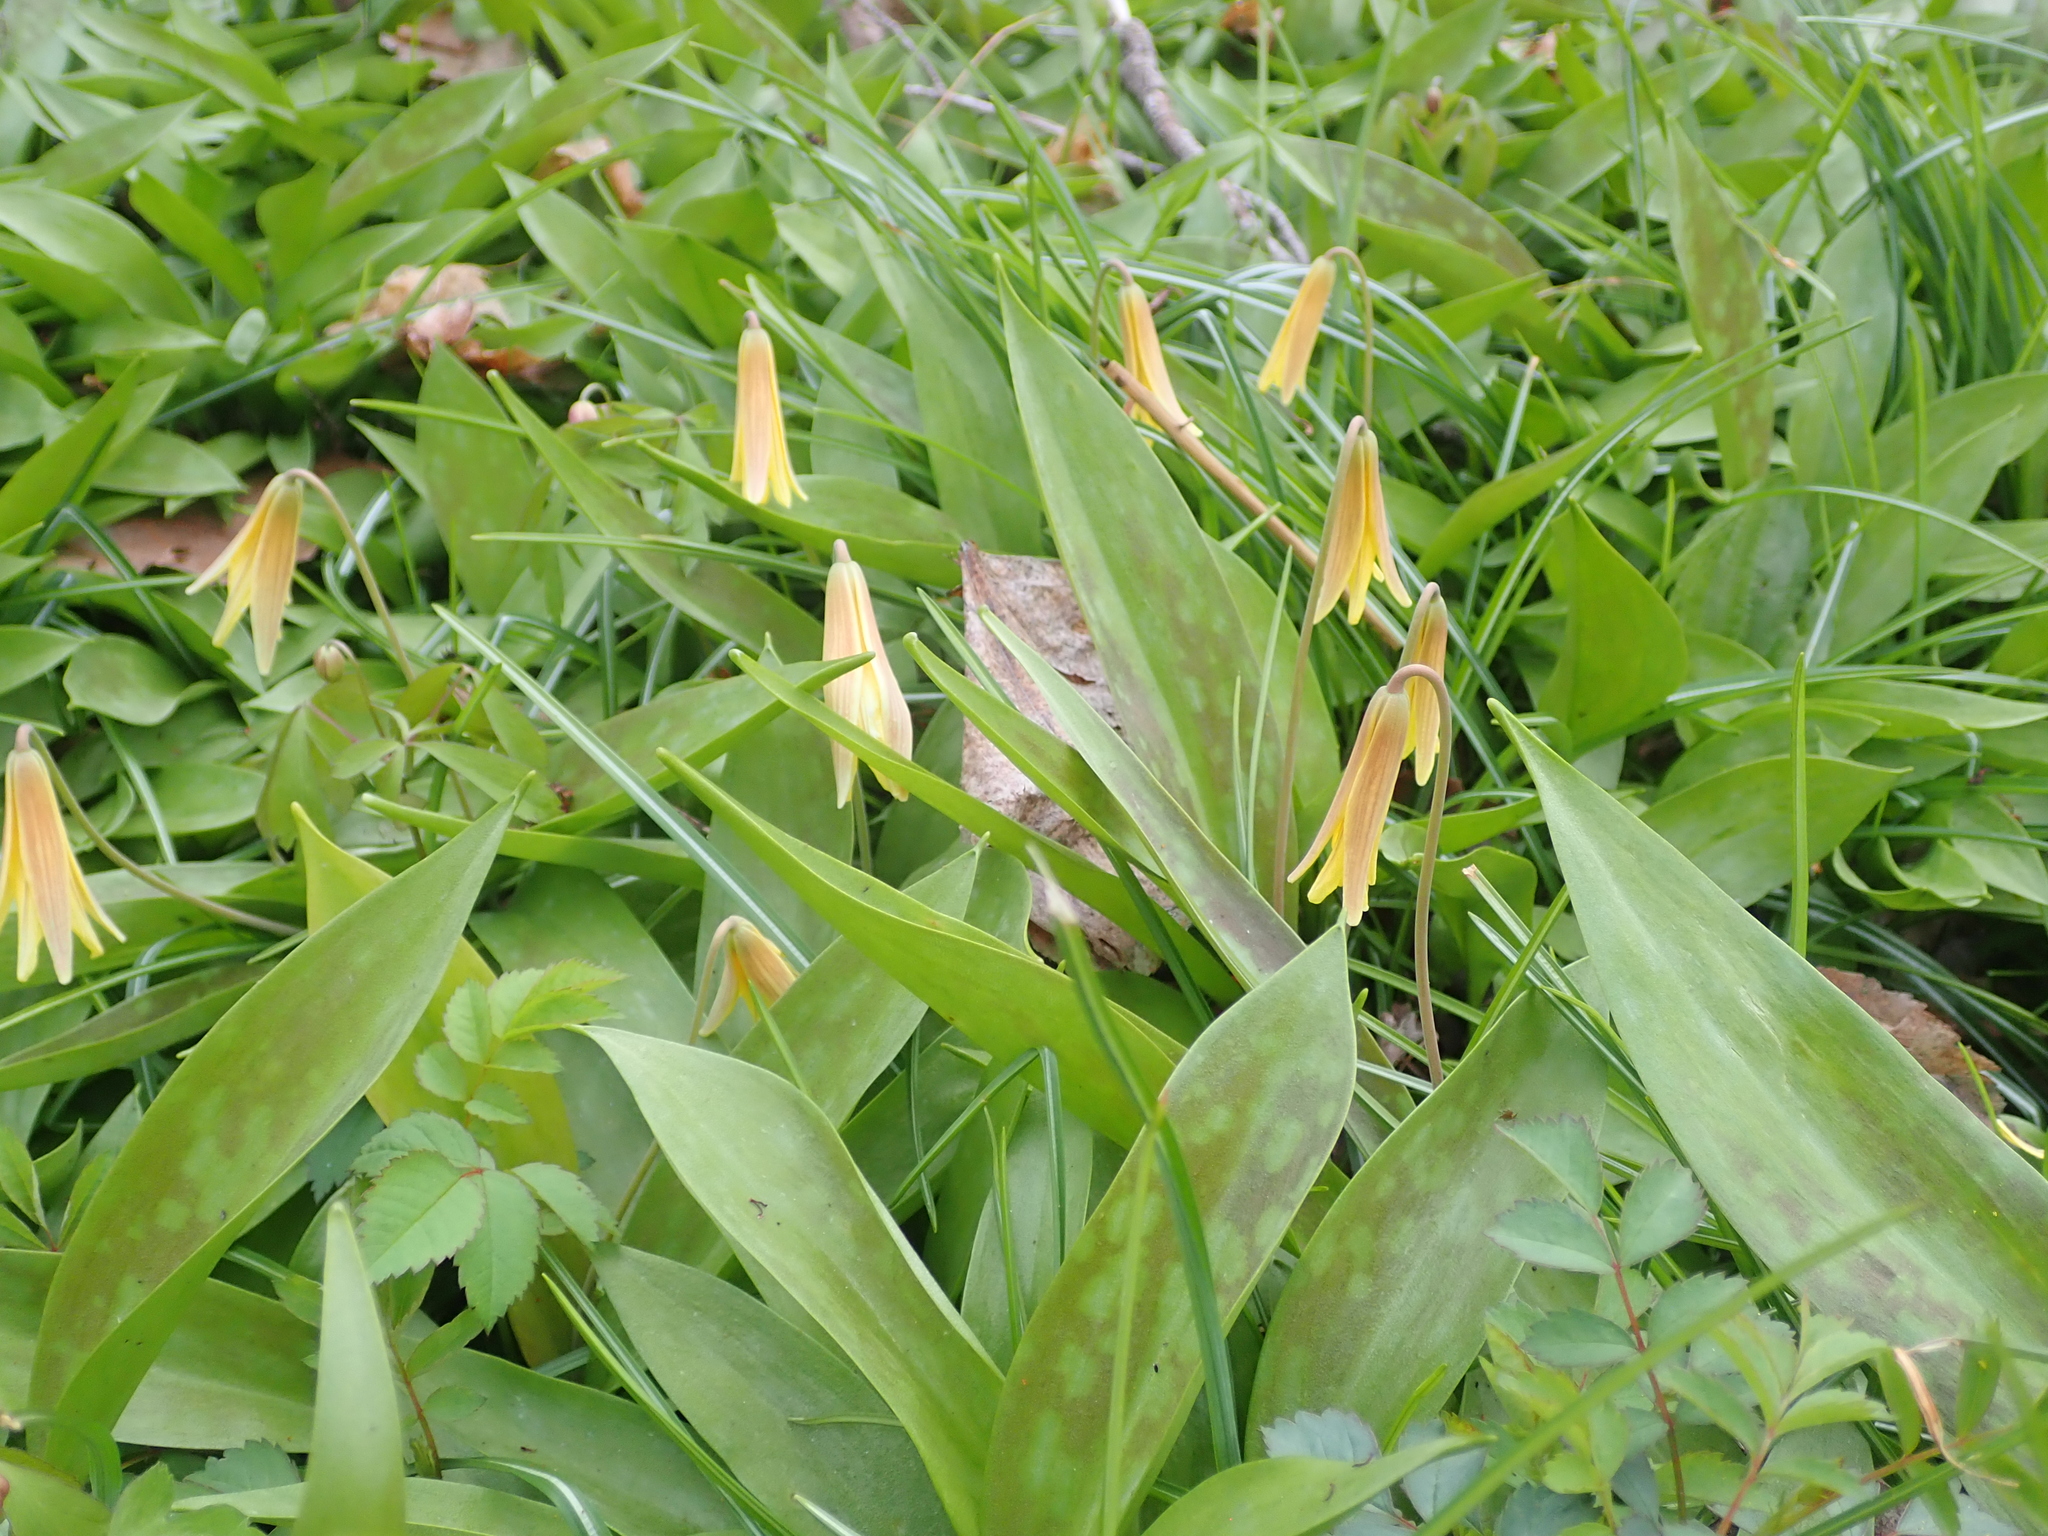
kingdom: Plantae
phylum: Tracheophyta
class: Liliopsida
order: Liliales
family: Liliaceae
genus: Erythronium
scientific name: Erythronium americanum
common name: Yellow adder's-tongue
